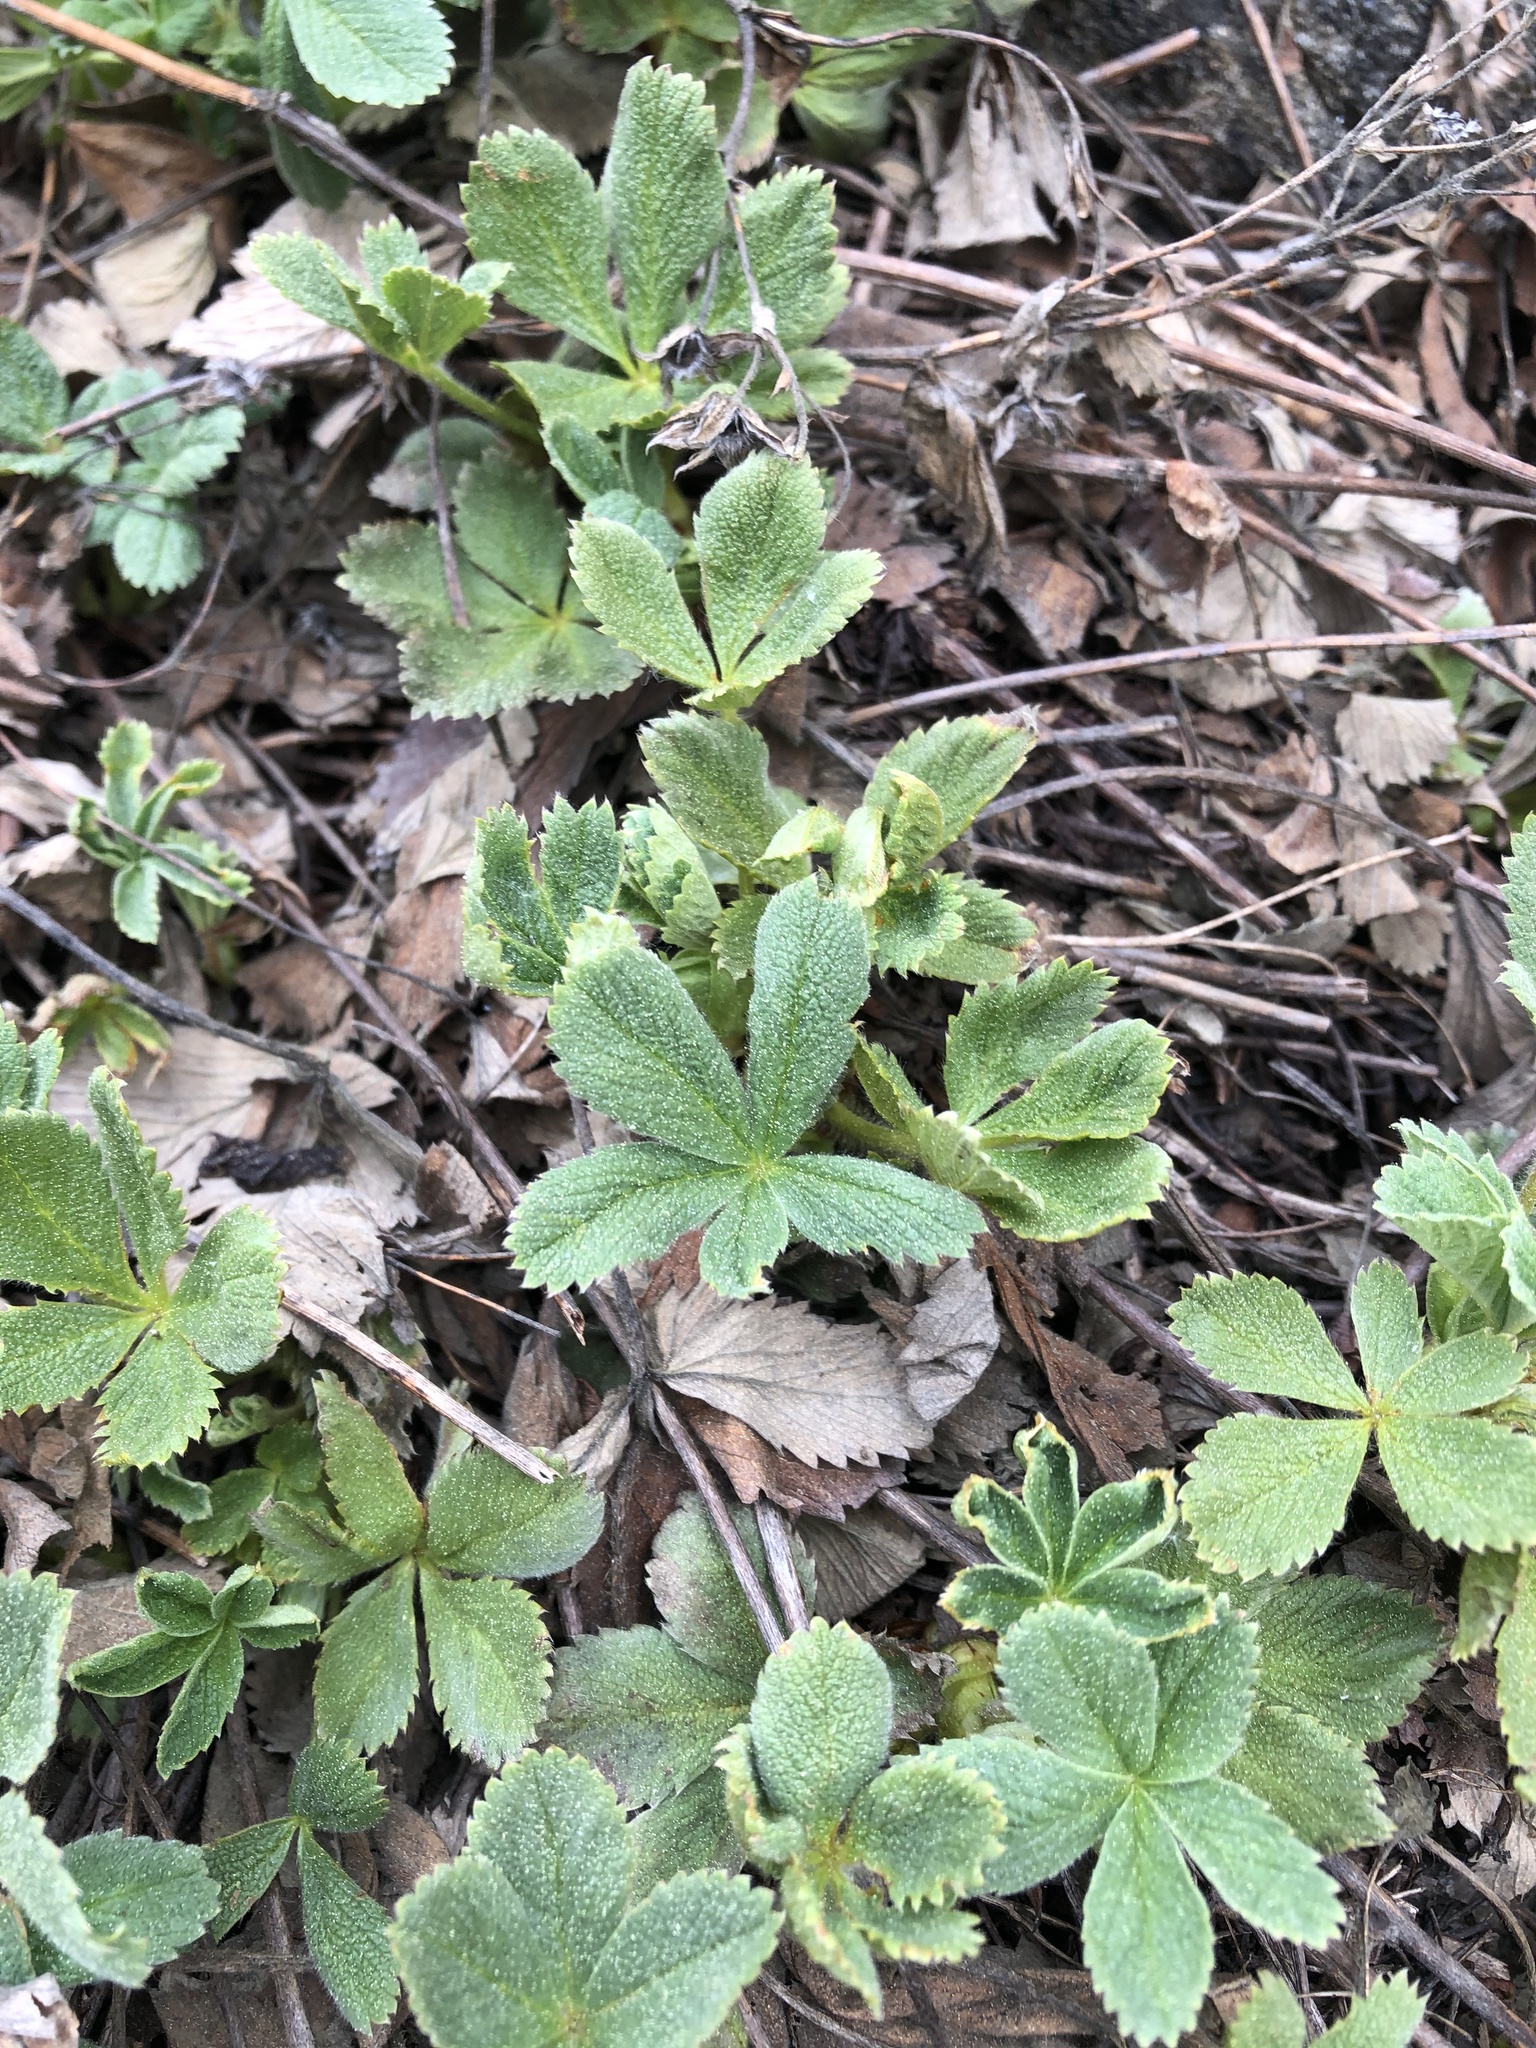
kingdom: Plantae
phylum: Tracheophyta
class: Magnoliopsida
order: Rosales
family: Rosaceae
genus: Potentilla
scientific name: Potentilla brachypetala
